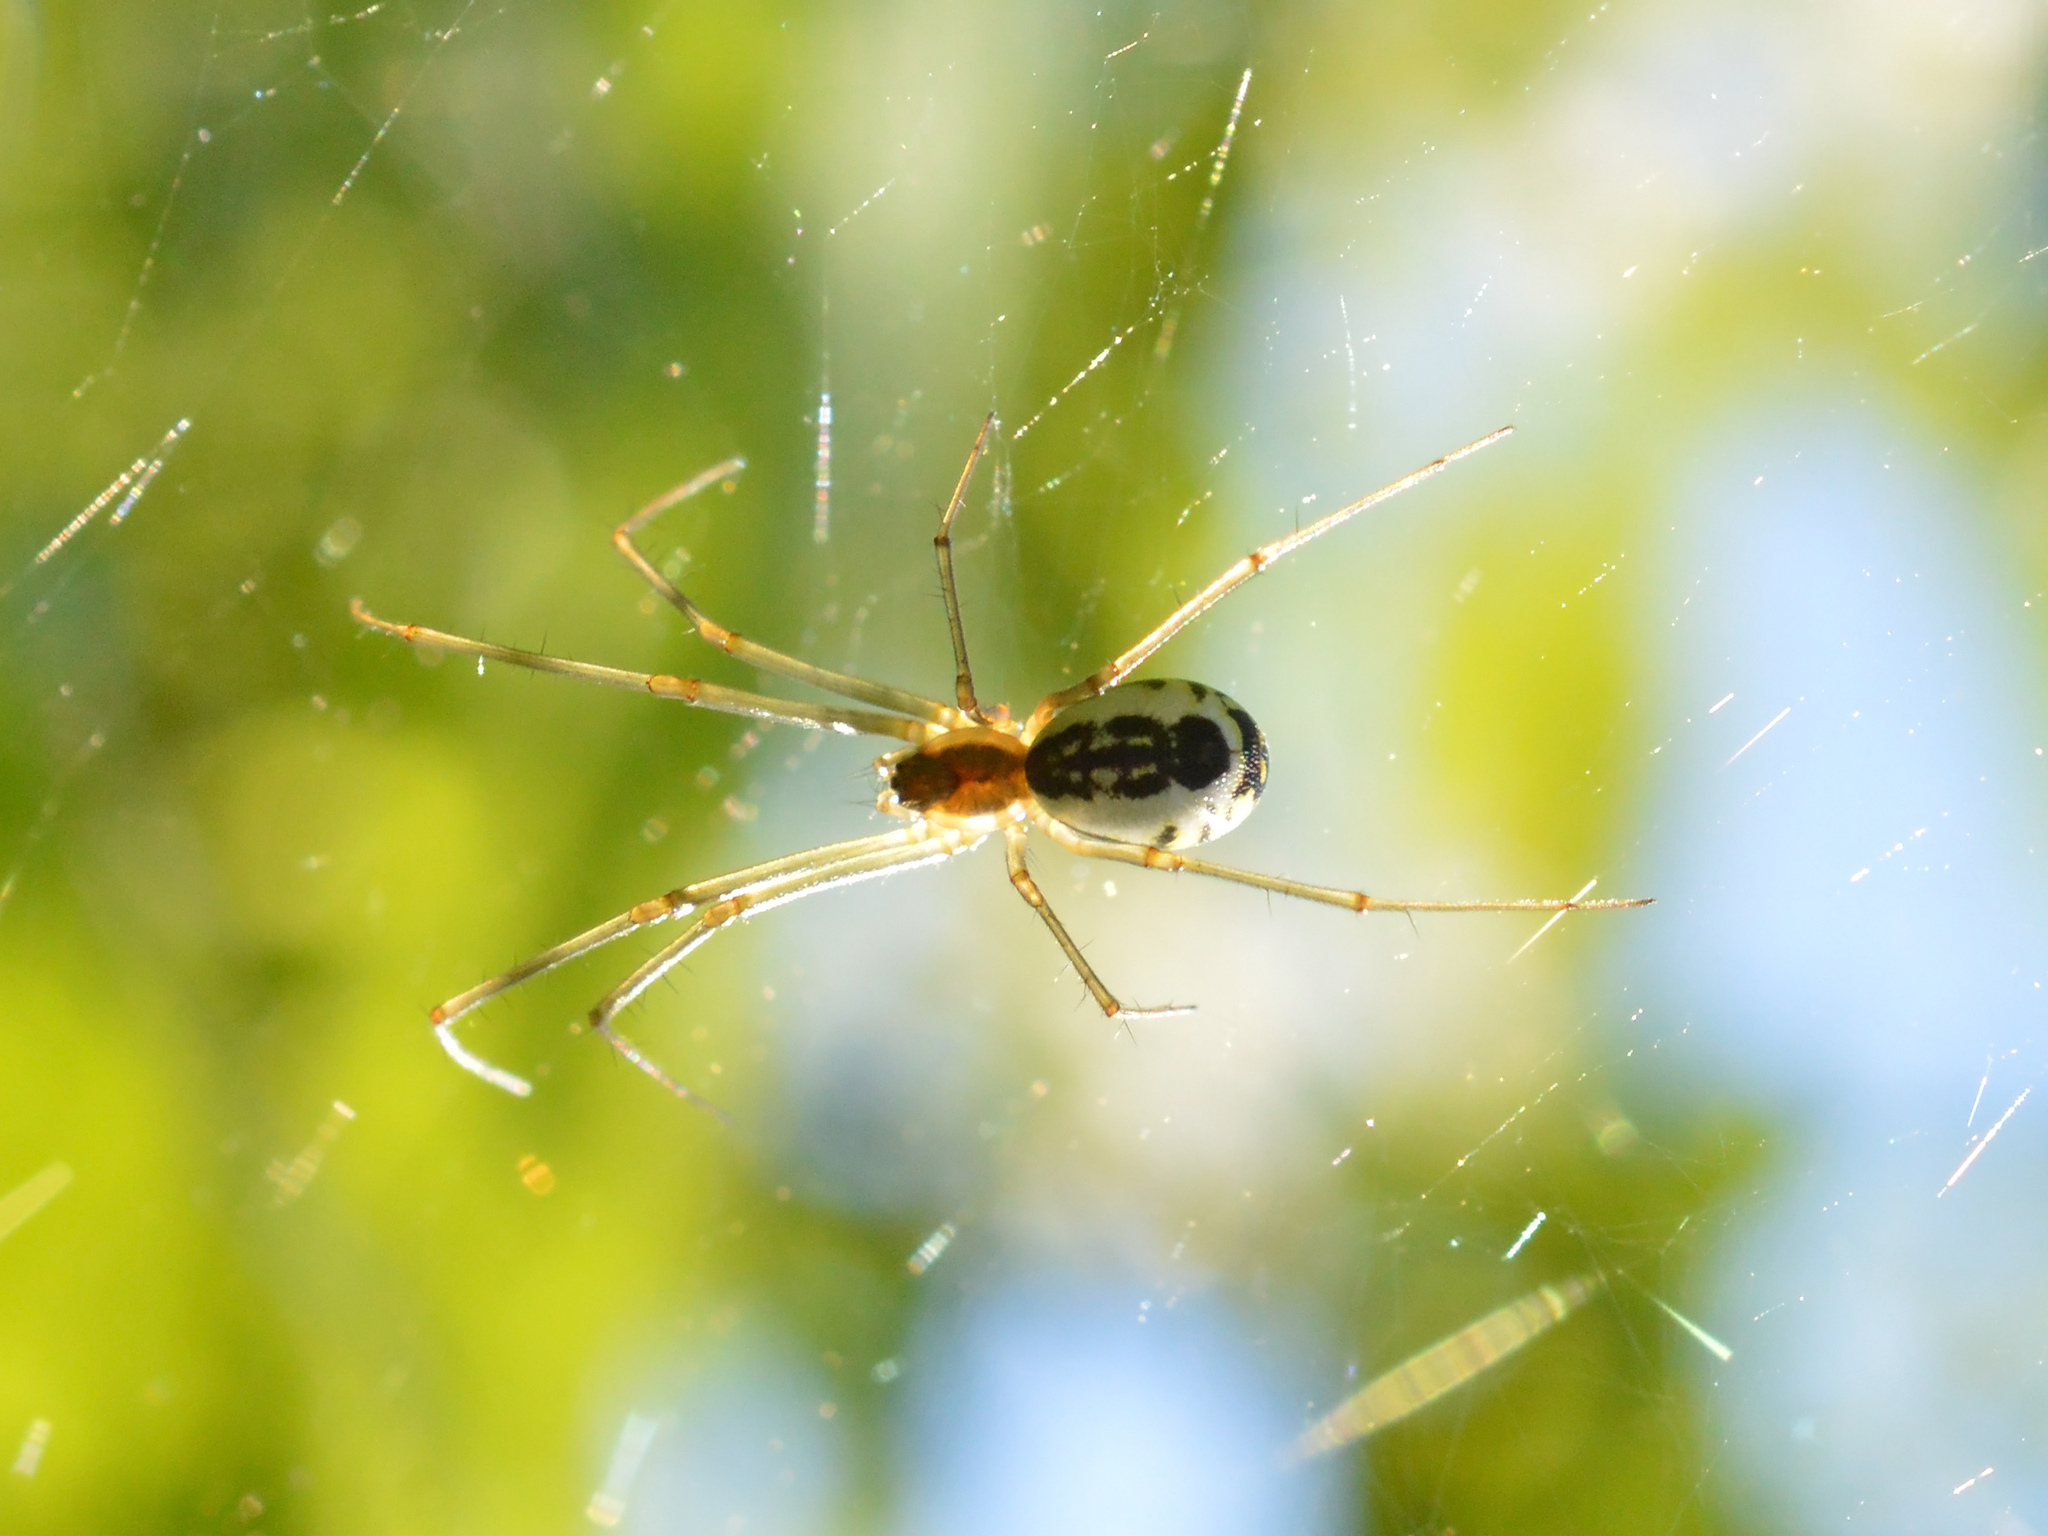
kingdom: Animalia
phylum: Arthropoda
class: Arachnida
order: Araneae
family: Linyphiidae
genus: Neriene
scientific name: Neriene radiata
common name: Filmy dome spider
